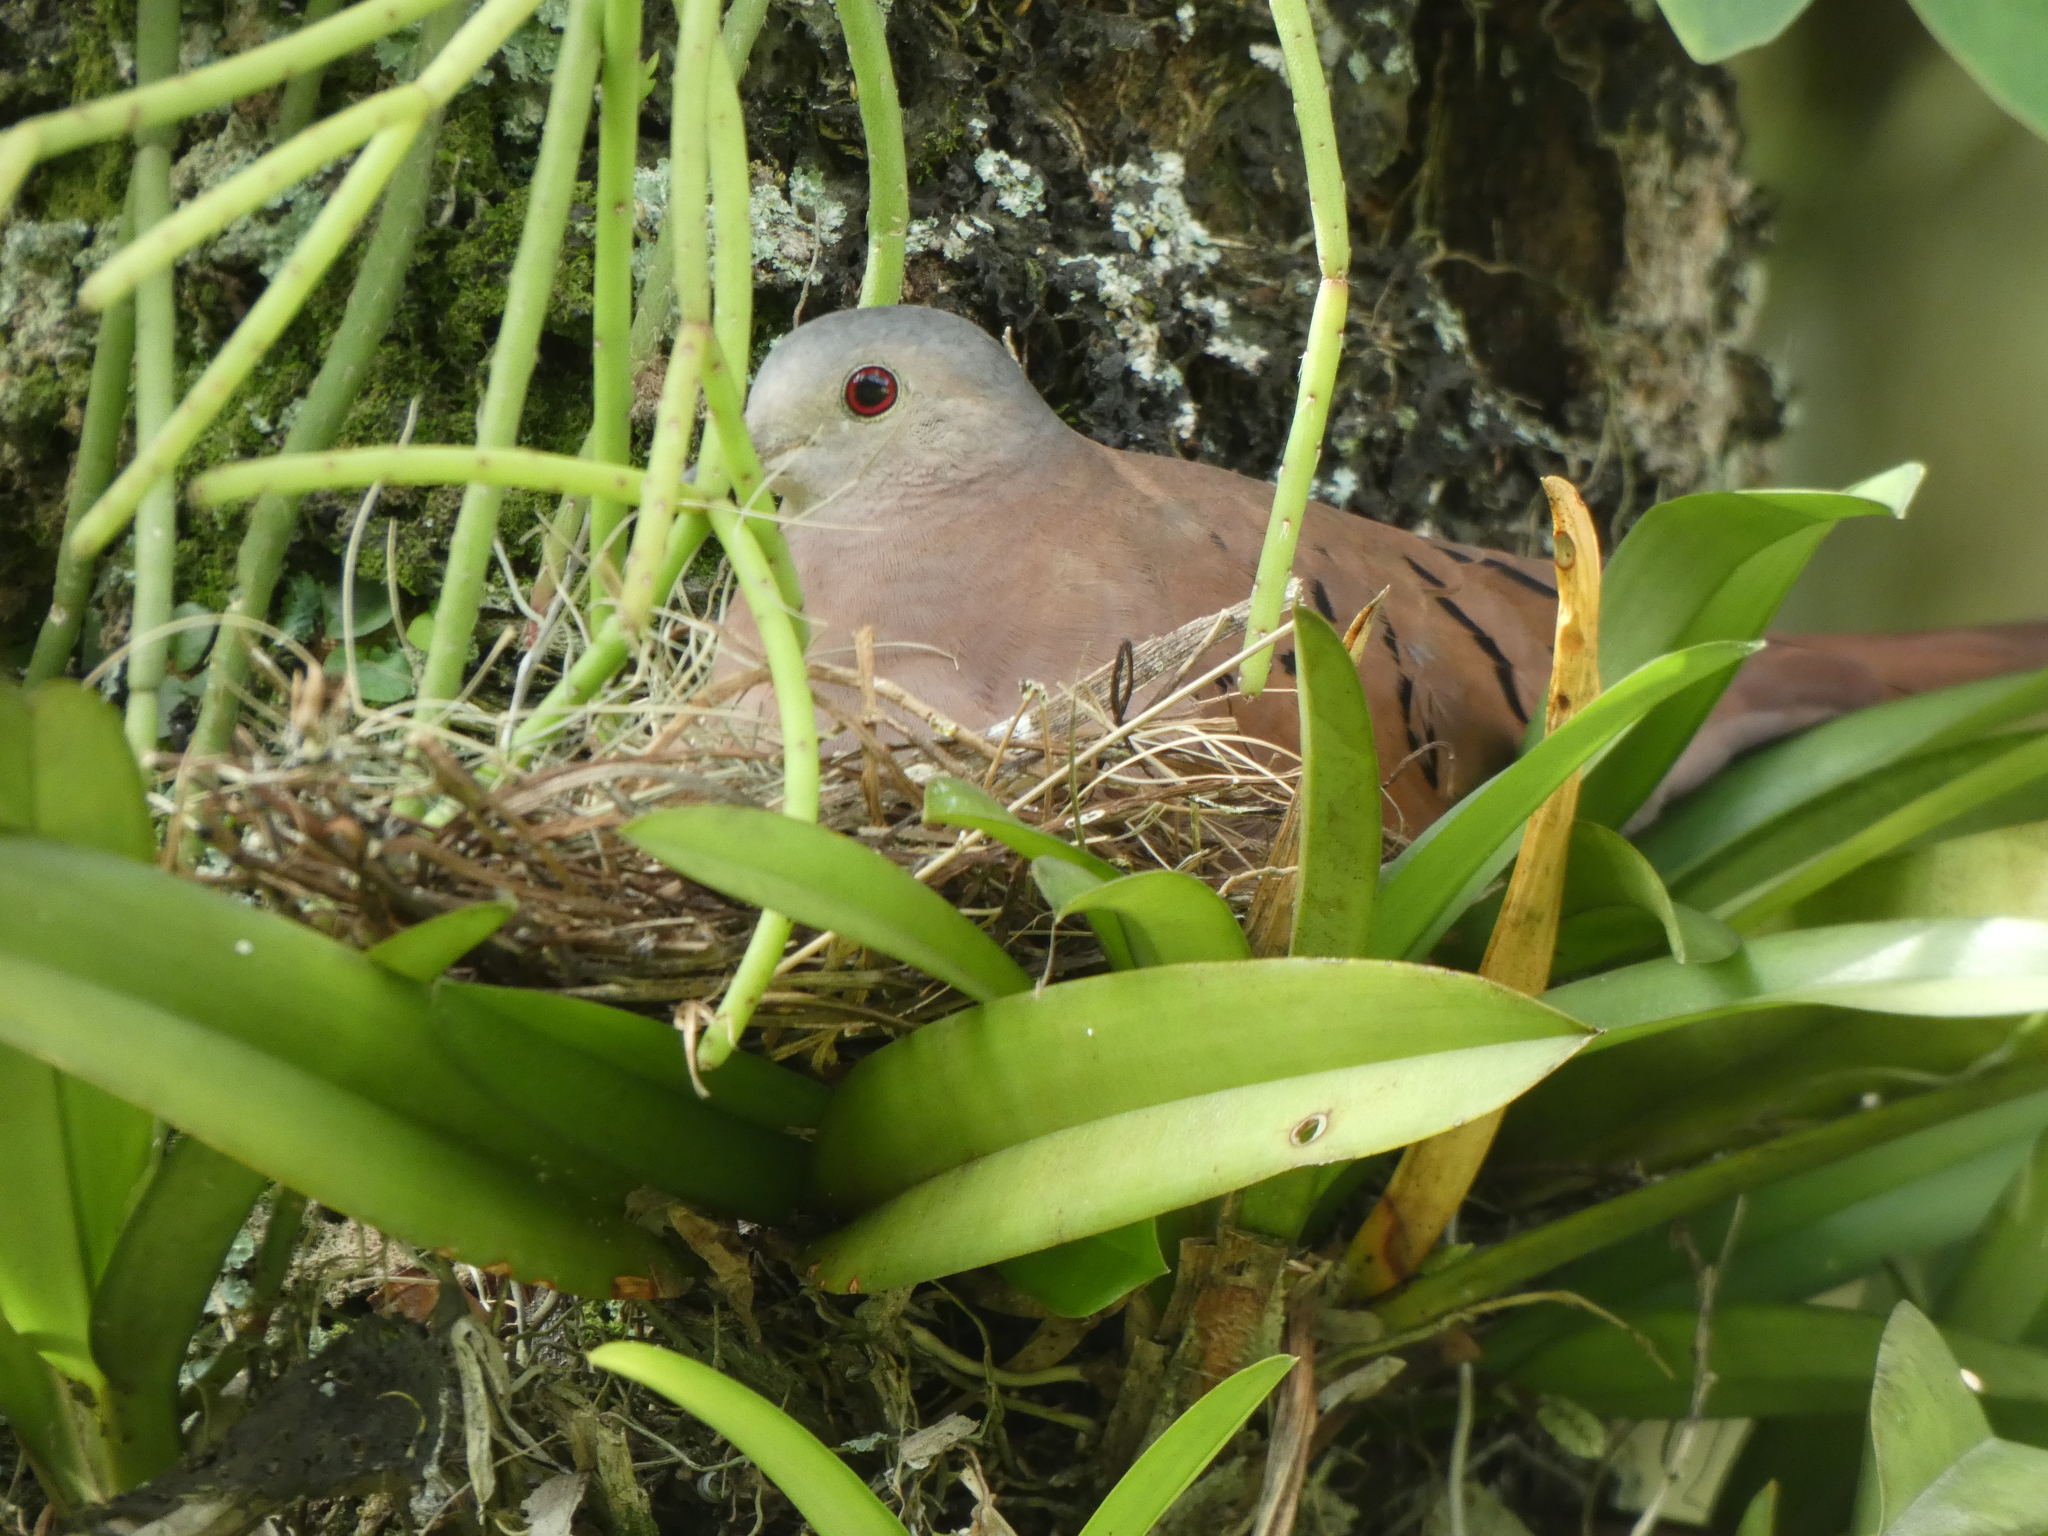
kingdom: Animalia
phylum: Chordata
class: Aves
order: Columbiformes
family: Columbidae
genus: Columbina
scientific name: Columbina talpacoti
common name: Ruddy ground dove
